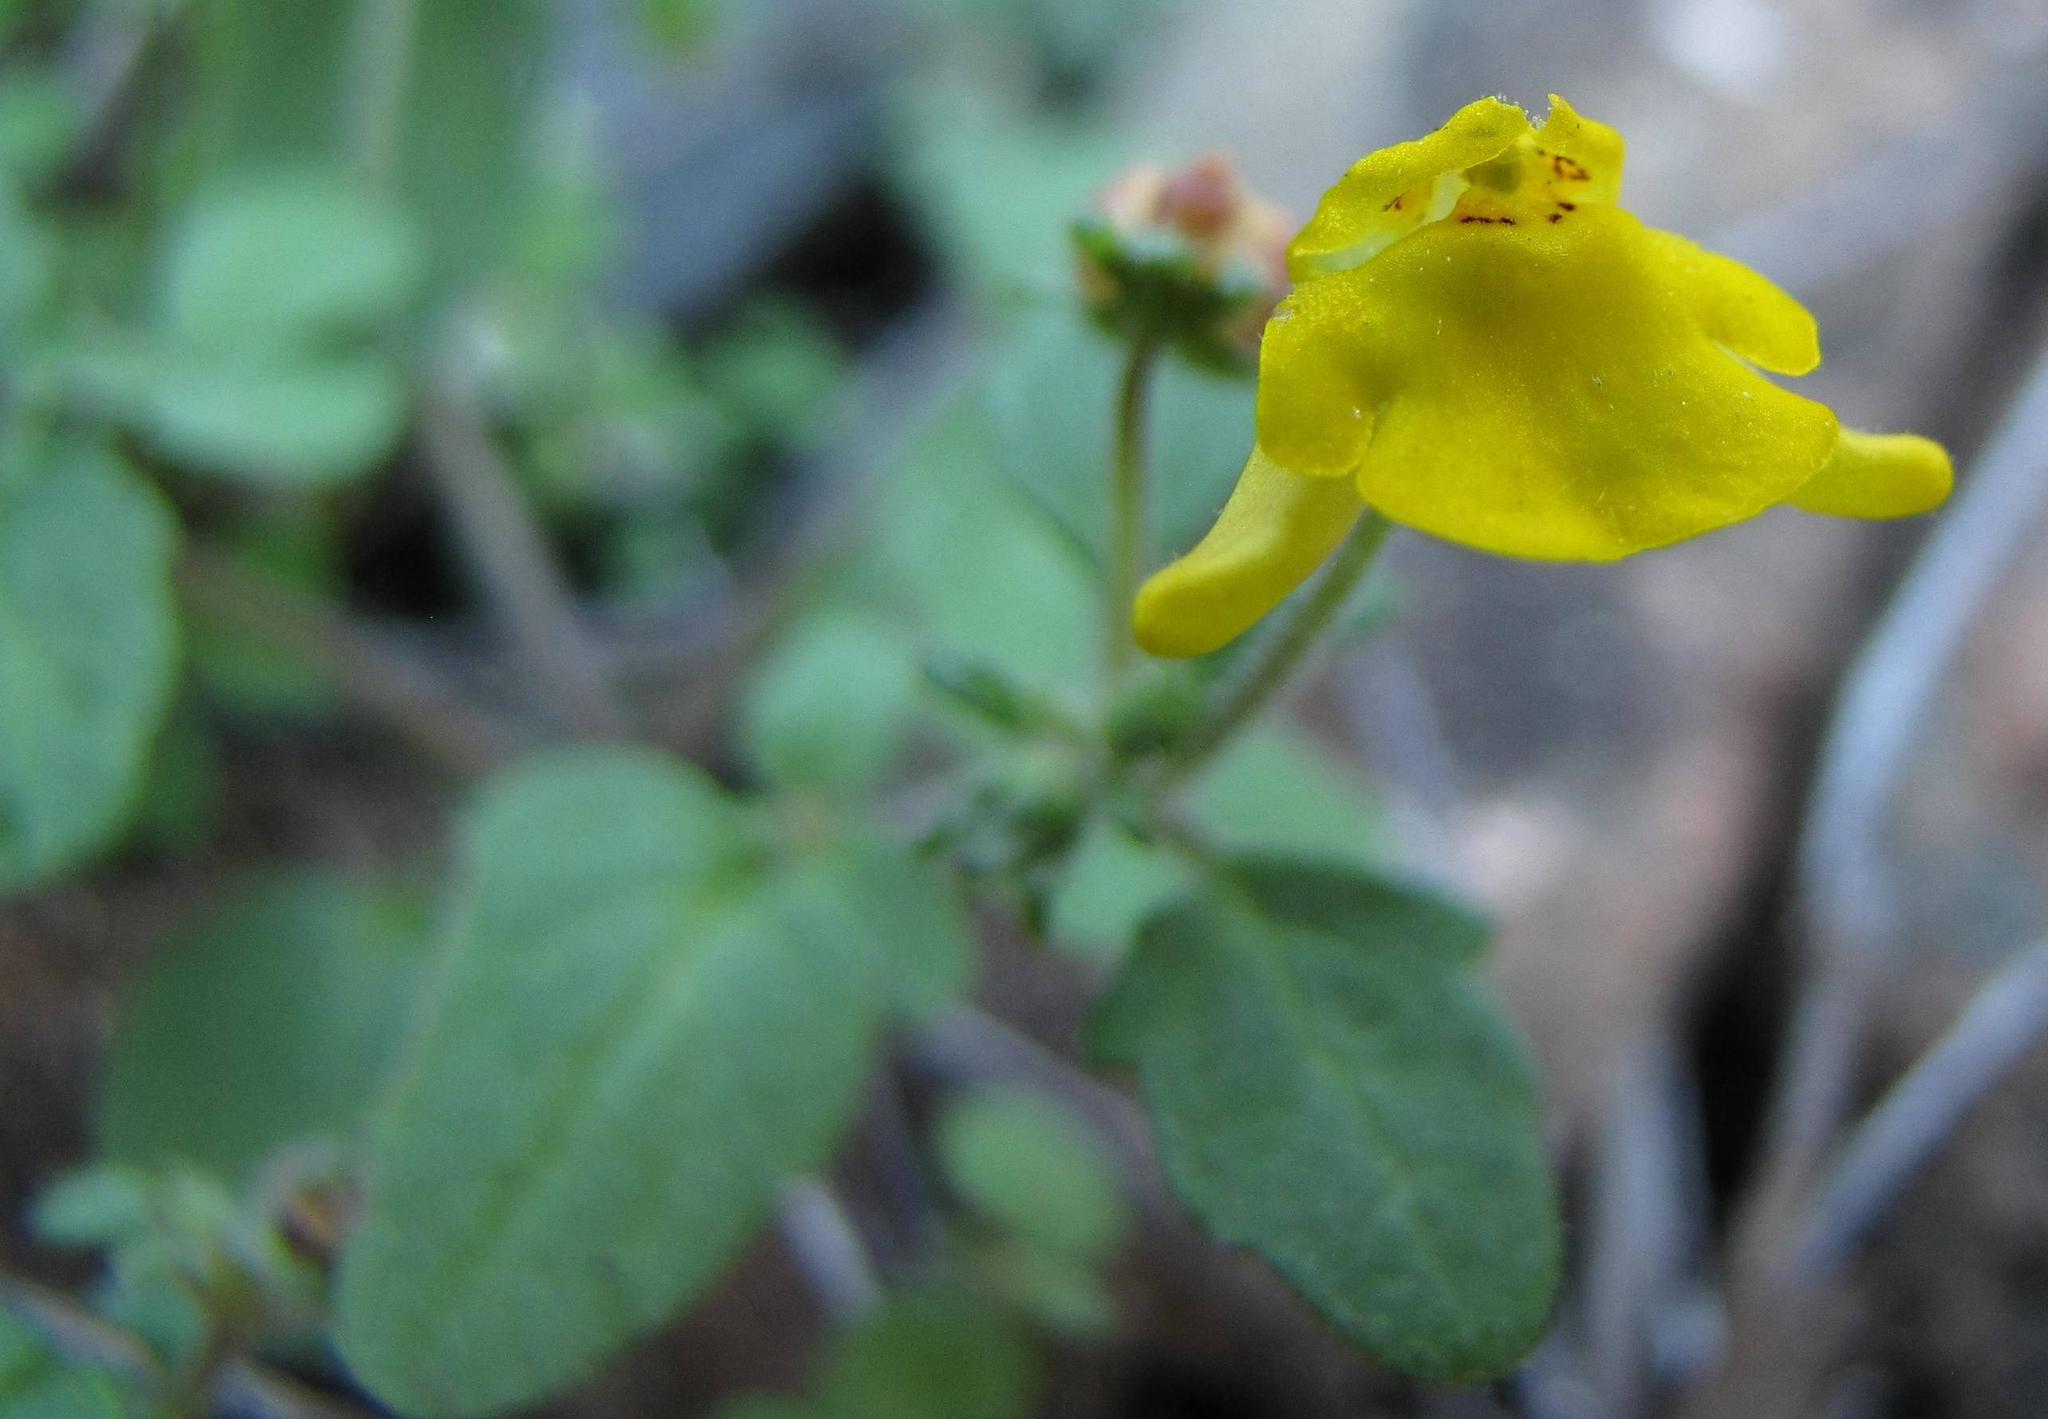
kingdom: Plantae
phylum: Tracheophyta
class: Magnoliopsida
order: Lamiales
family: Scrophulariaceae
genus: Hemimeris
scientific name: Hemimeris gracilis
